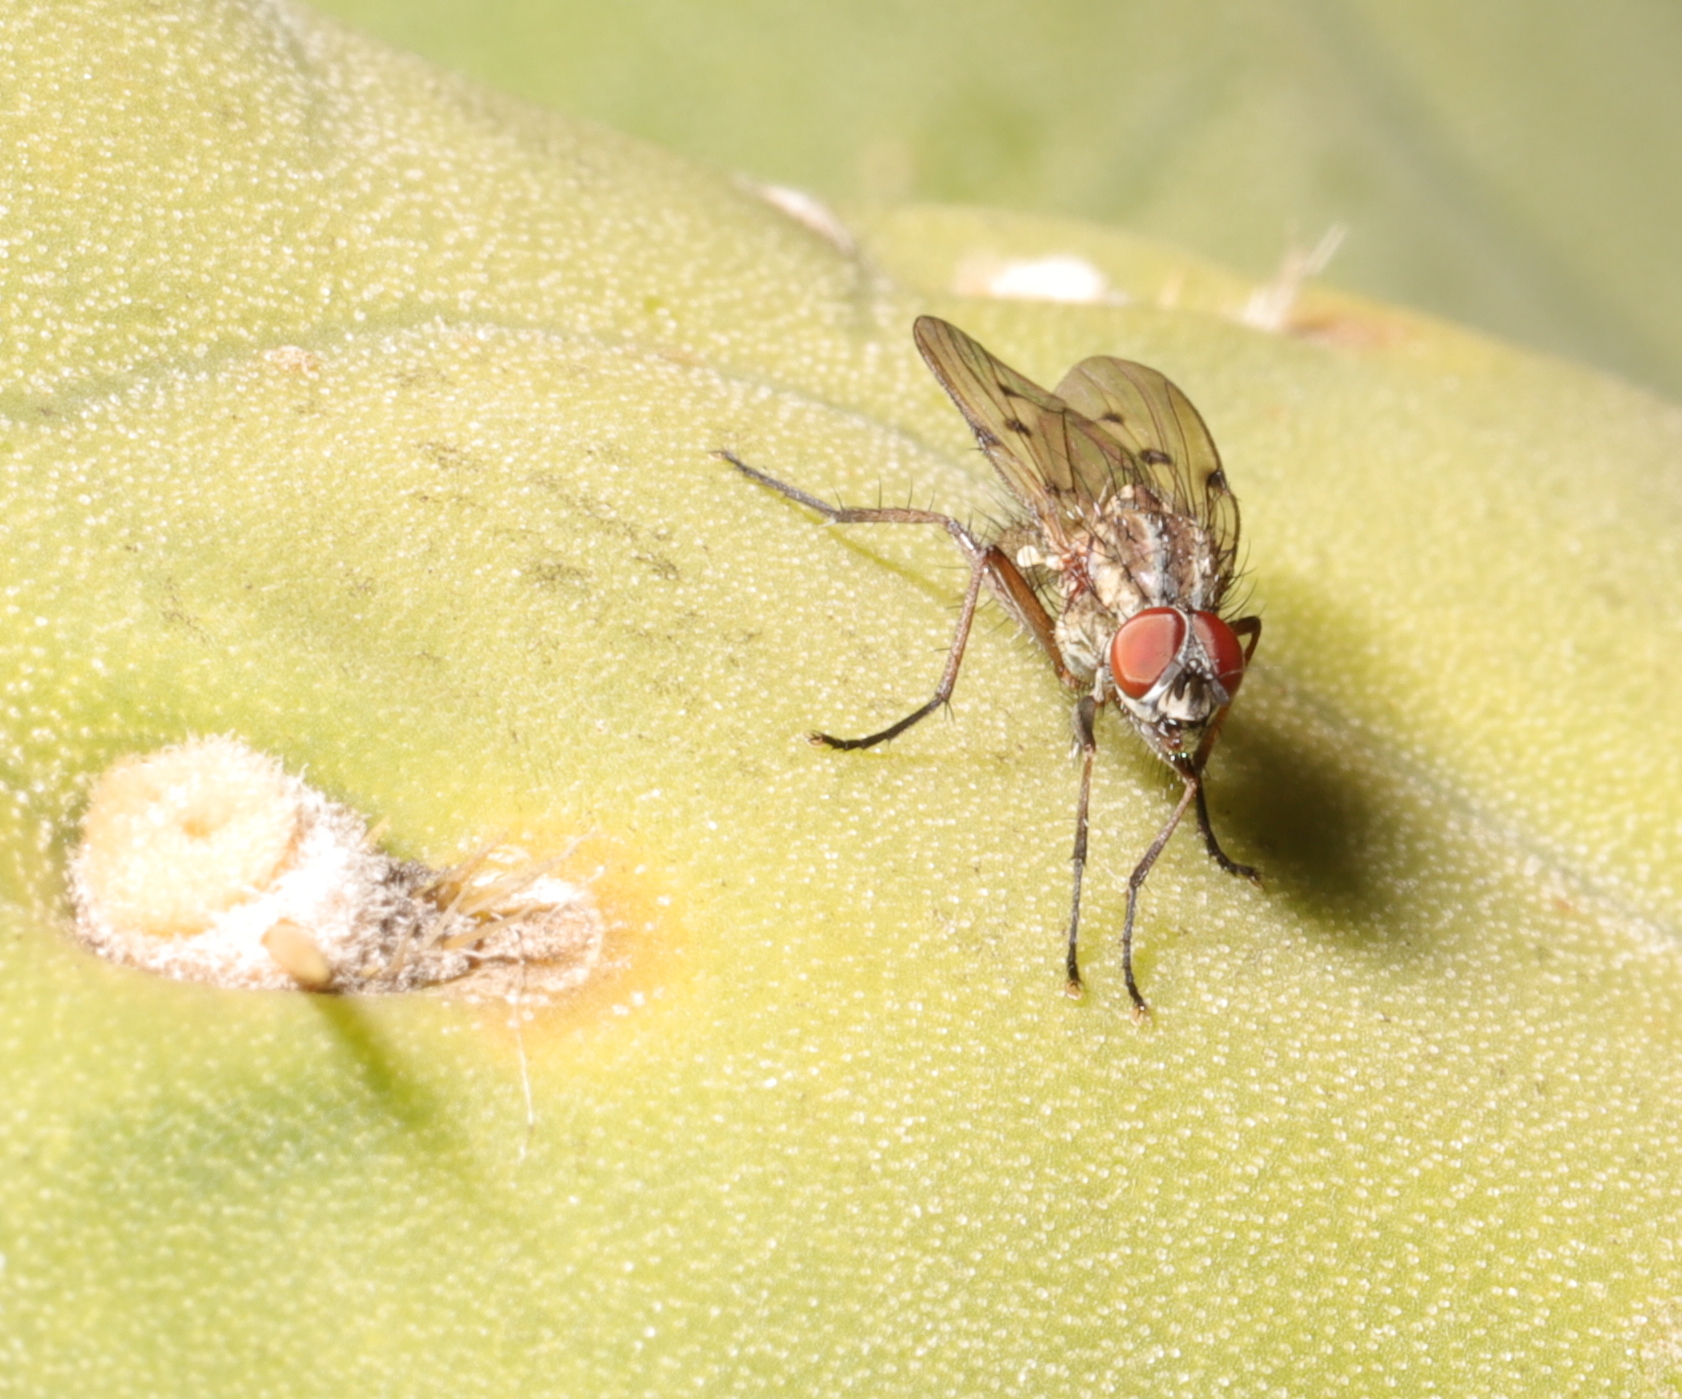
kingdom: Animalia
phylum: Arthropoda
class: Insecta
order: Diptera
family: Anthomyiidae
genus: Anthomyia
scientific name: Anthomyia punctipennis
